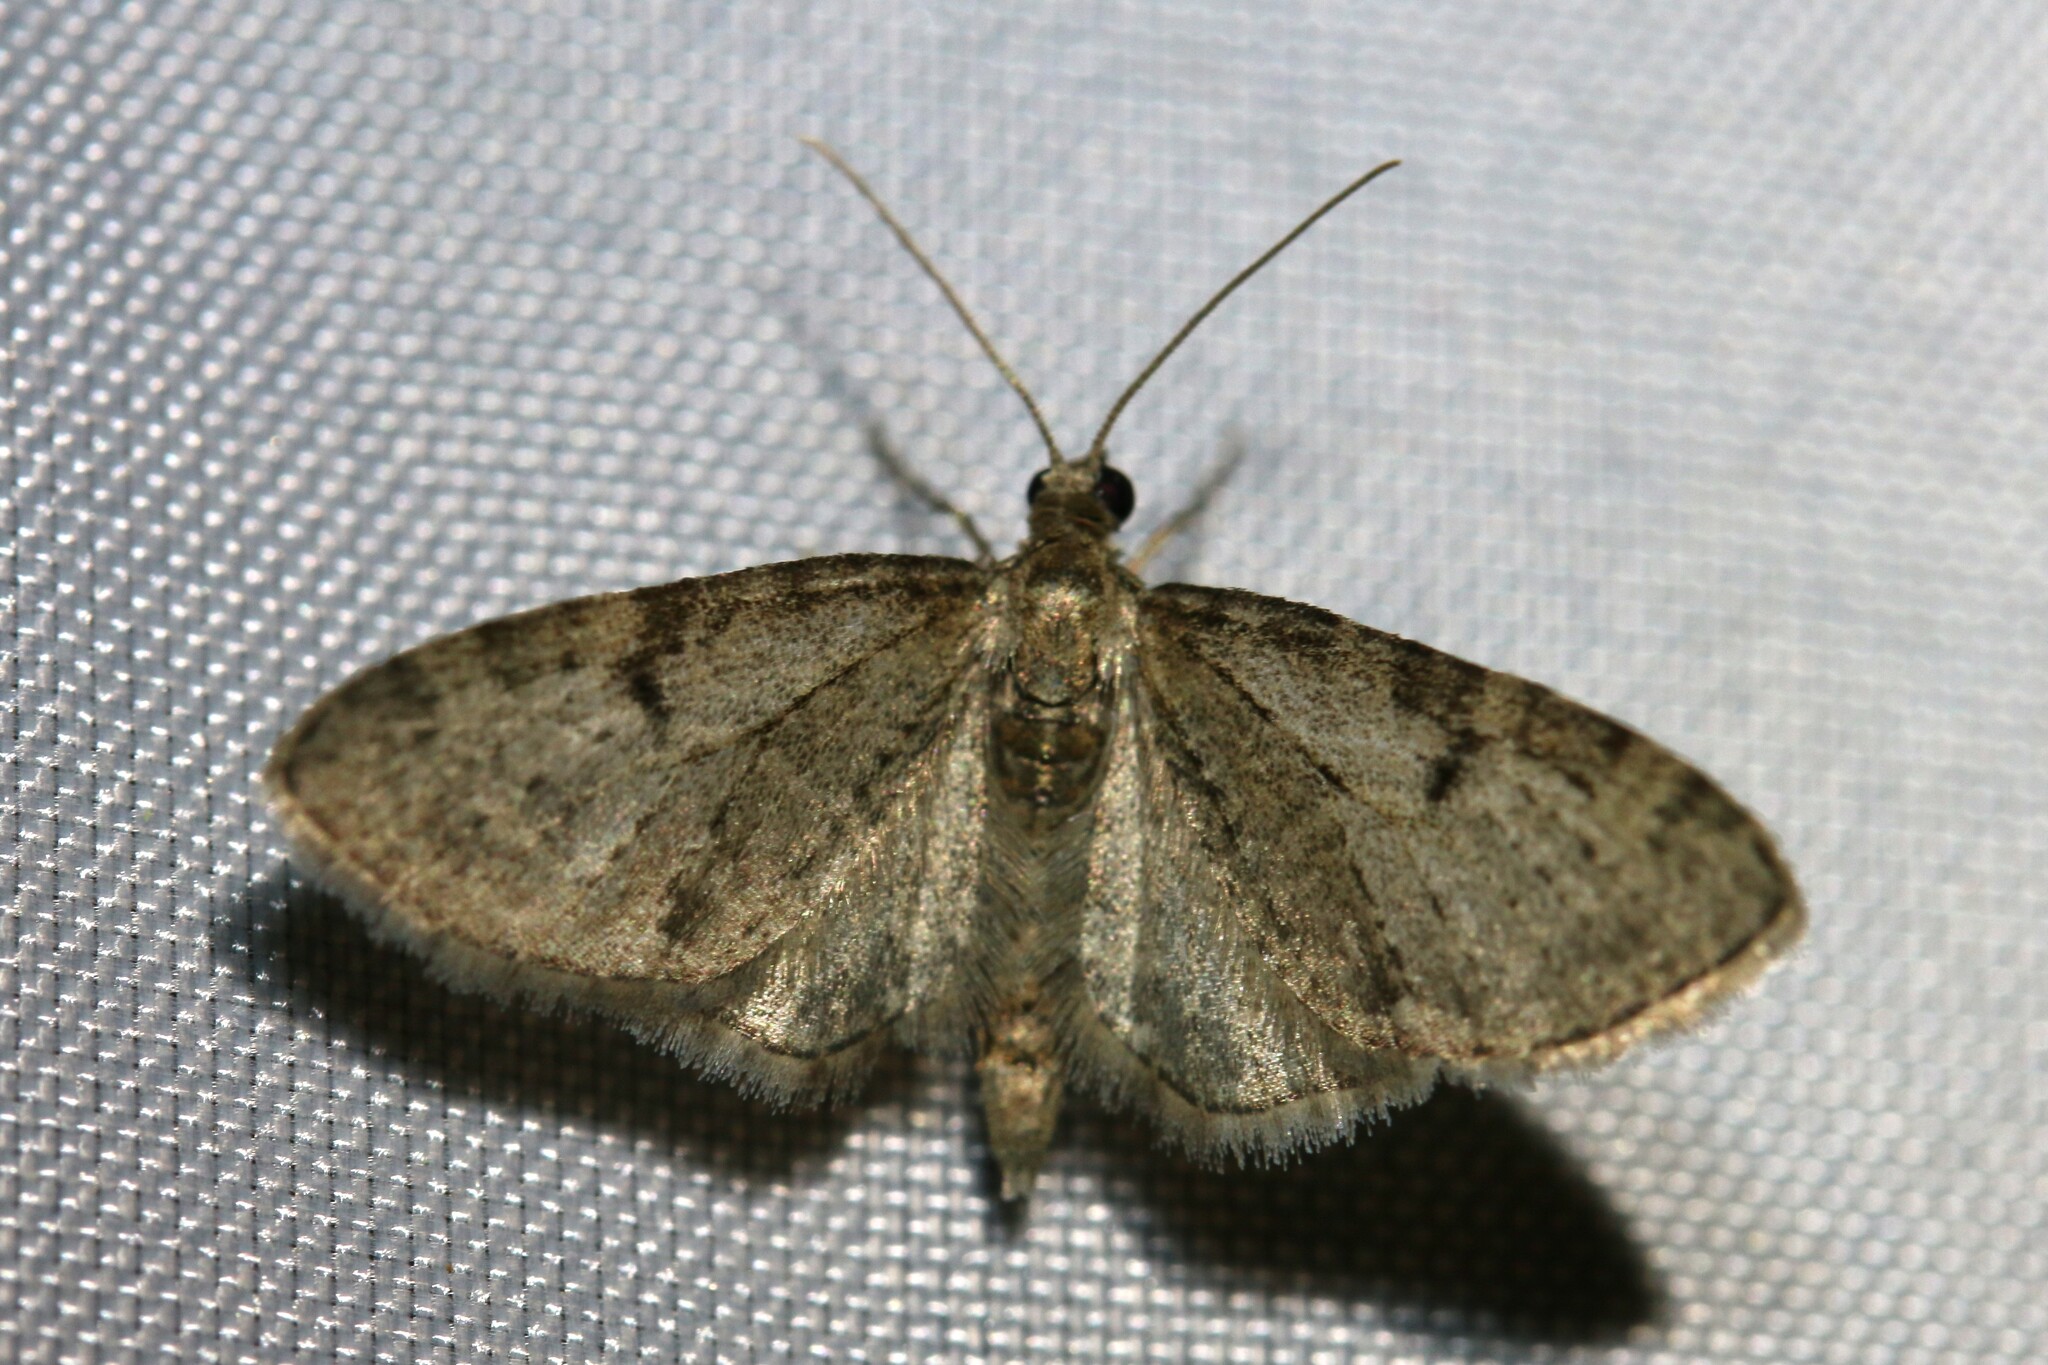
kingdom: Animalia
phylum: Arthropoda
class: Insecta
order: Lepidoptera
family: Geometridae
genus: Eupithecia
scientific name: Eupithecia virgaureata
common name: Golden-rod pug
